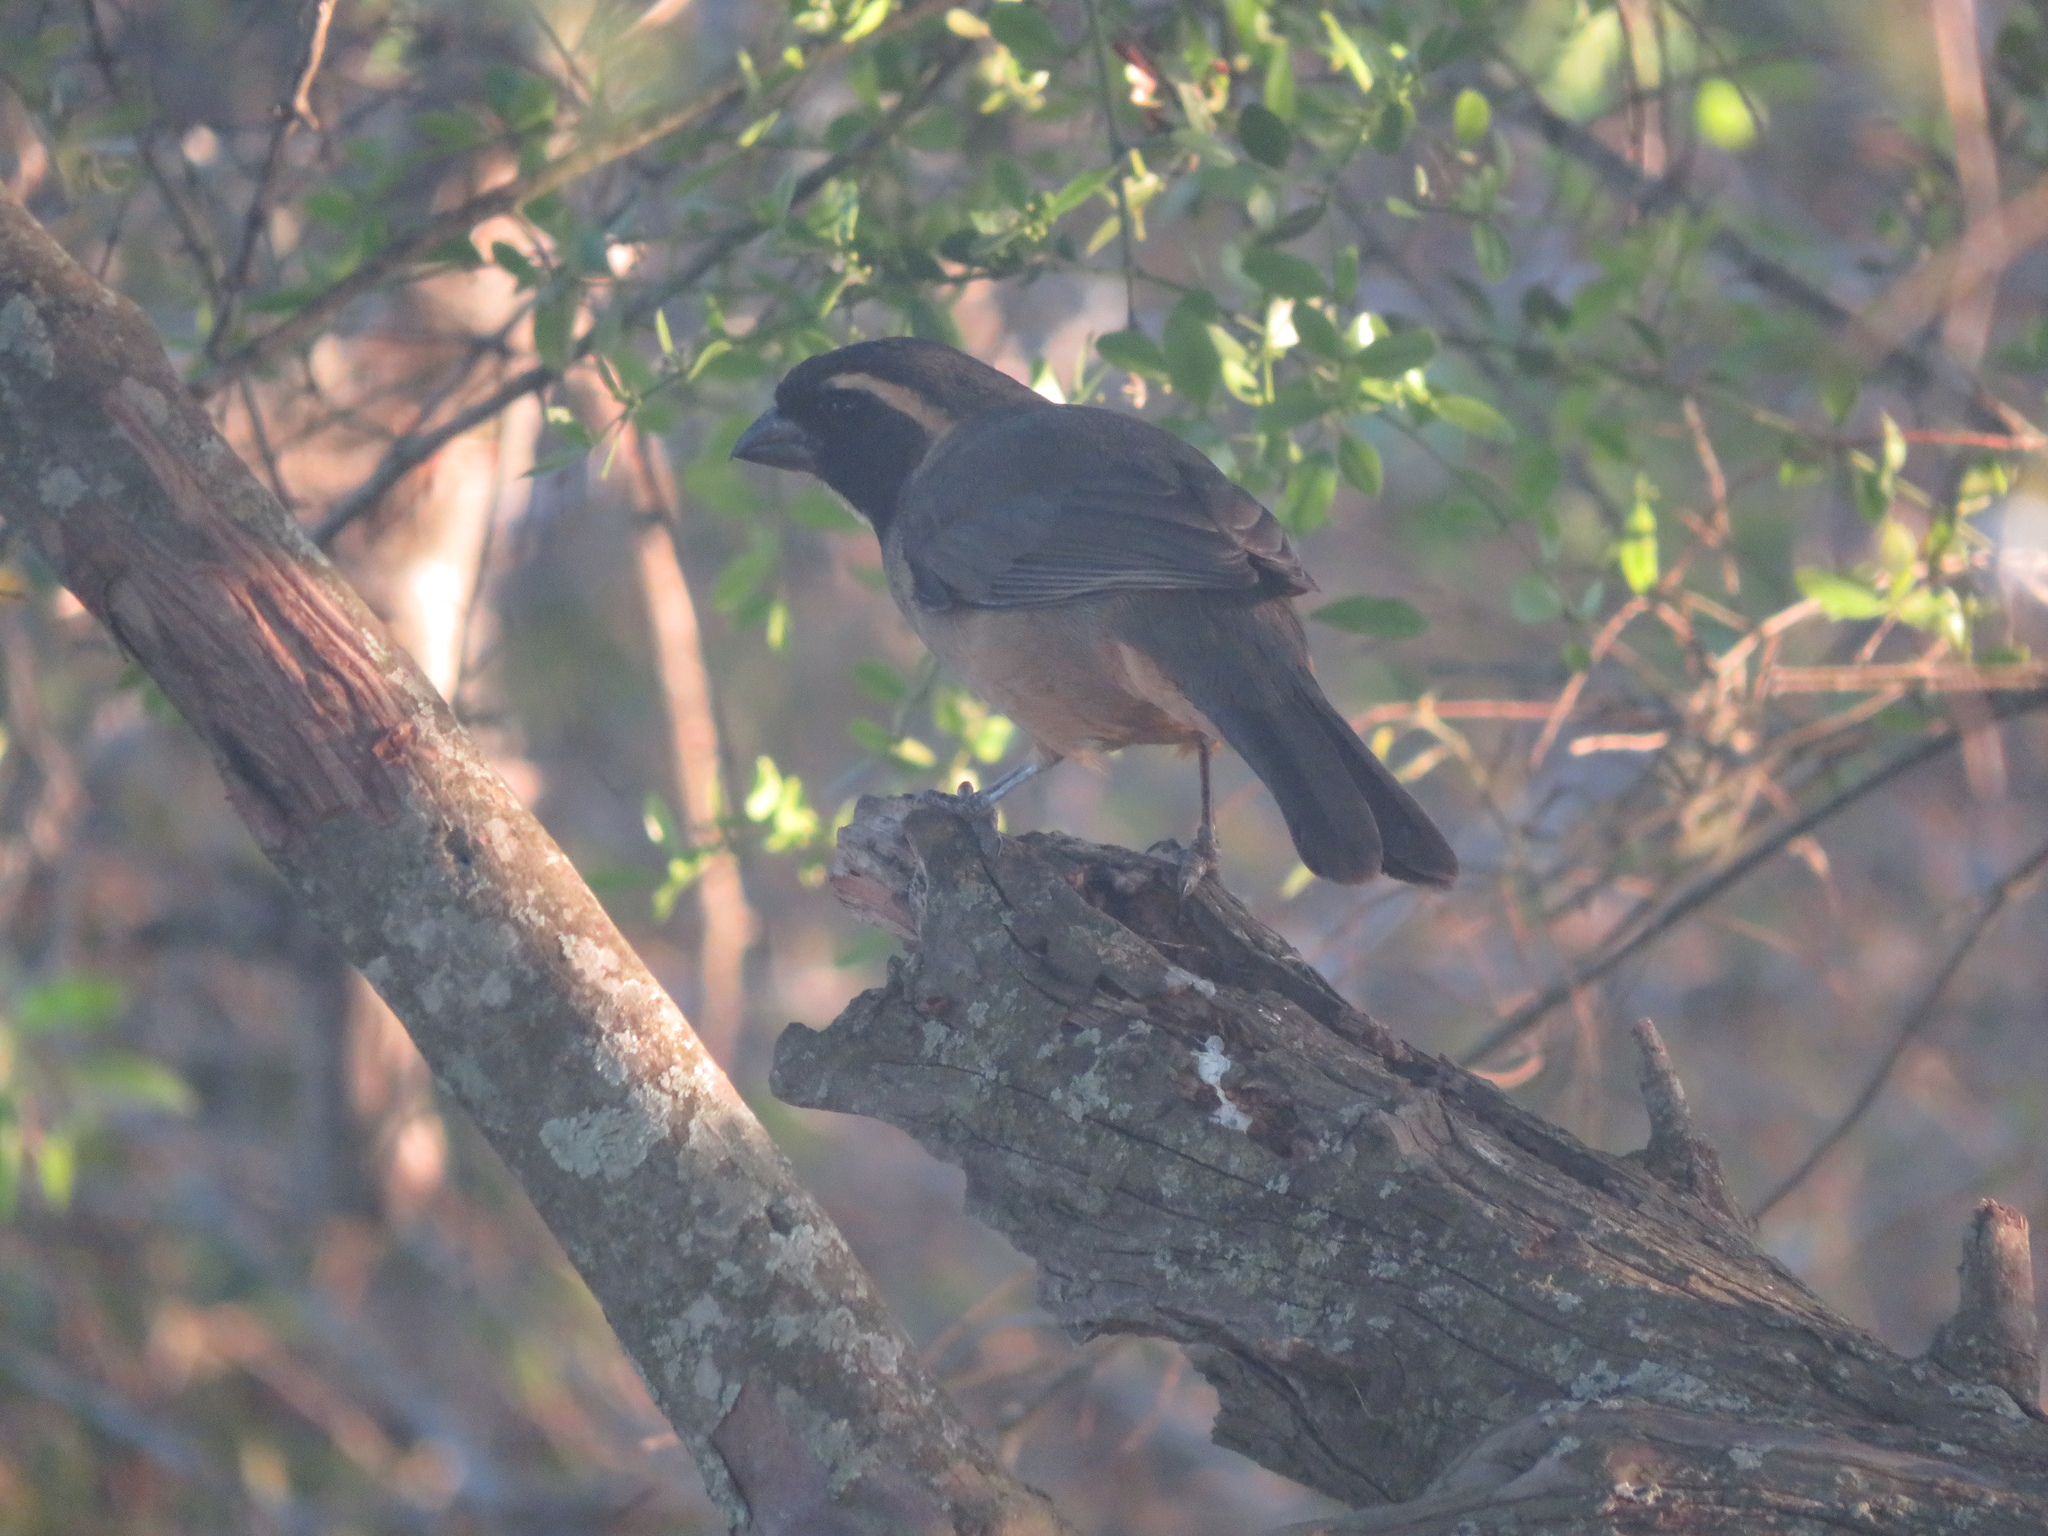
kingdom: Animalia
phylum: Chordata
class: Aves
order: Passeriformes
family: Thraupidae
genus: Saltator
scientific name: Saltator aurantiirostris
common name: Golden-billed saltator
